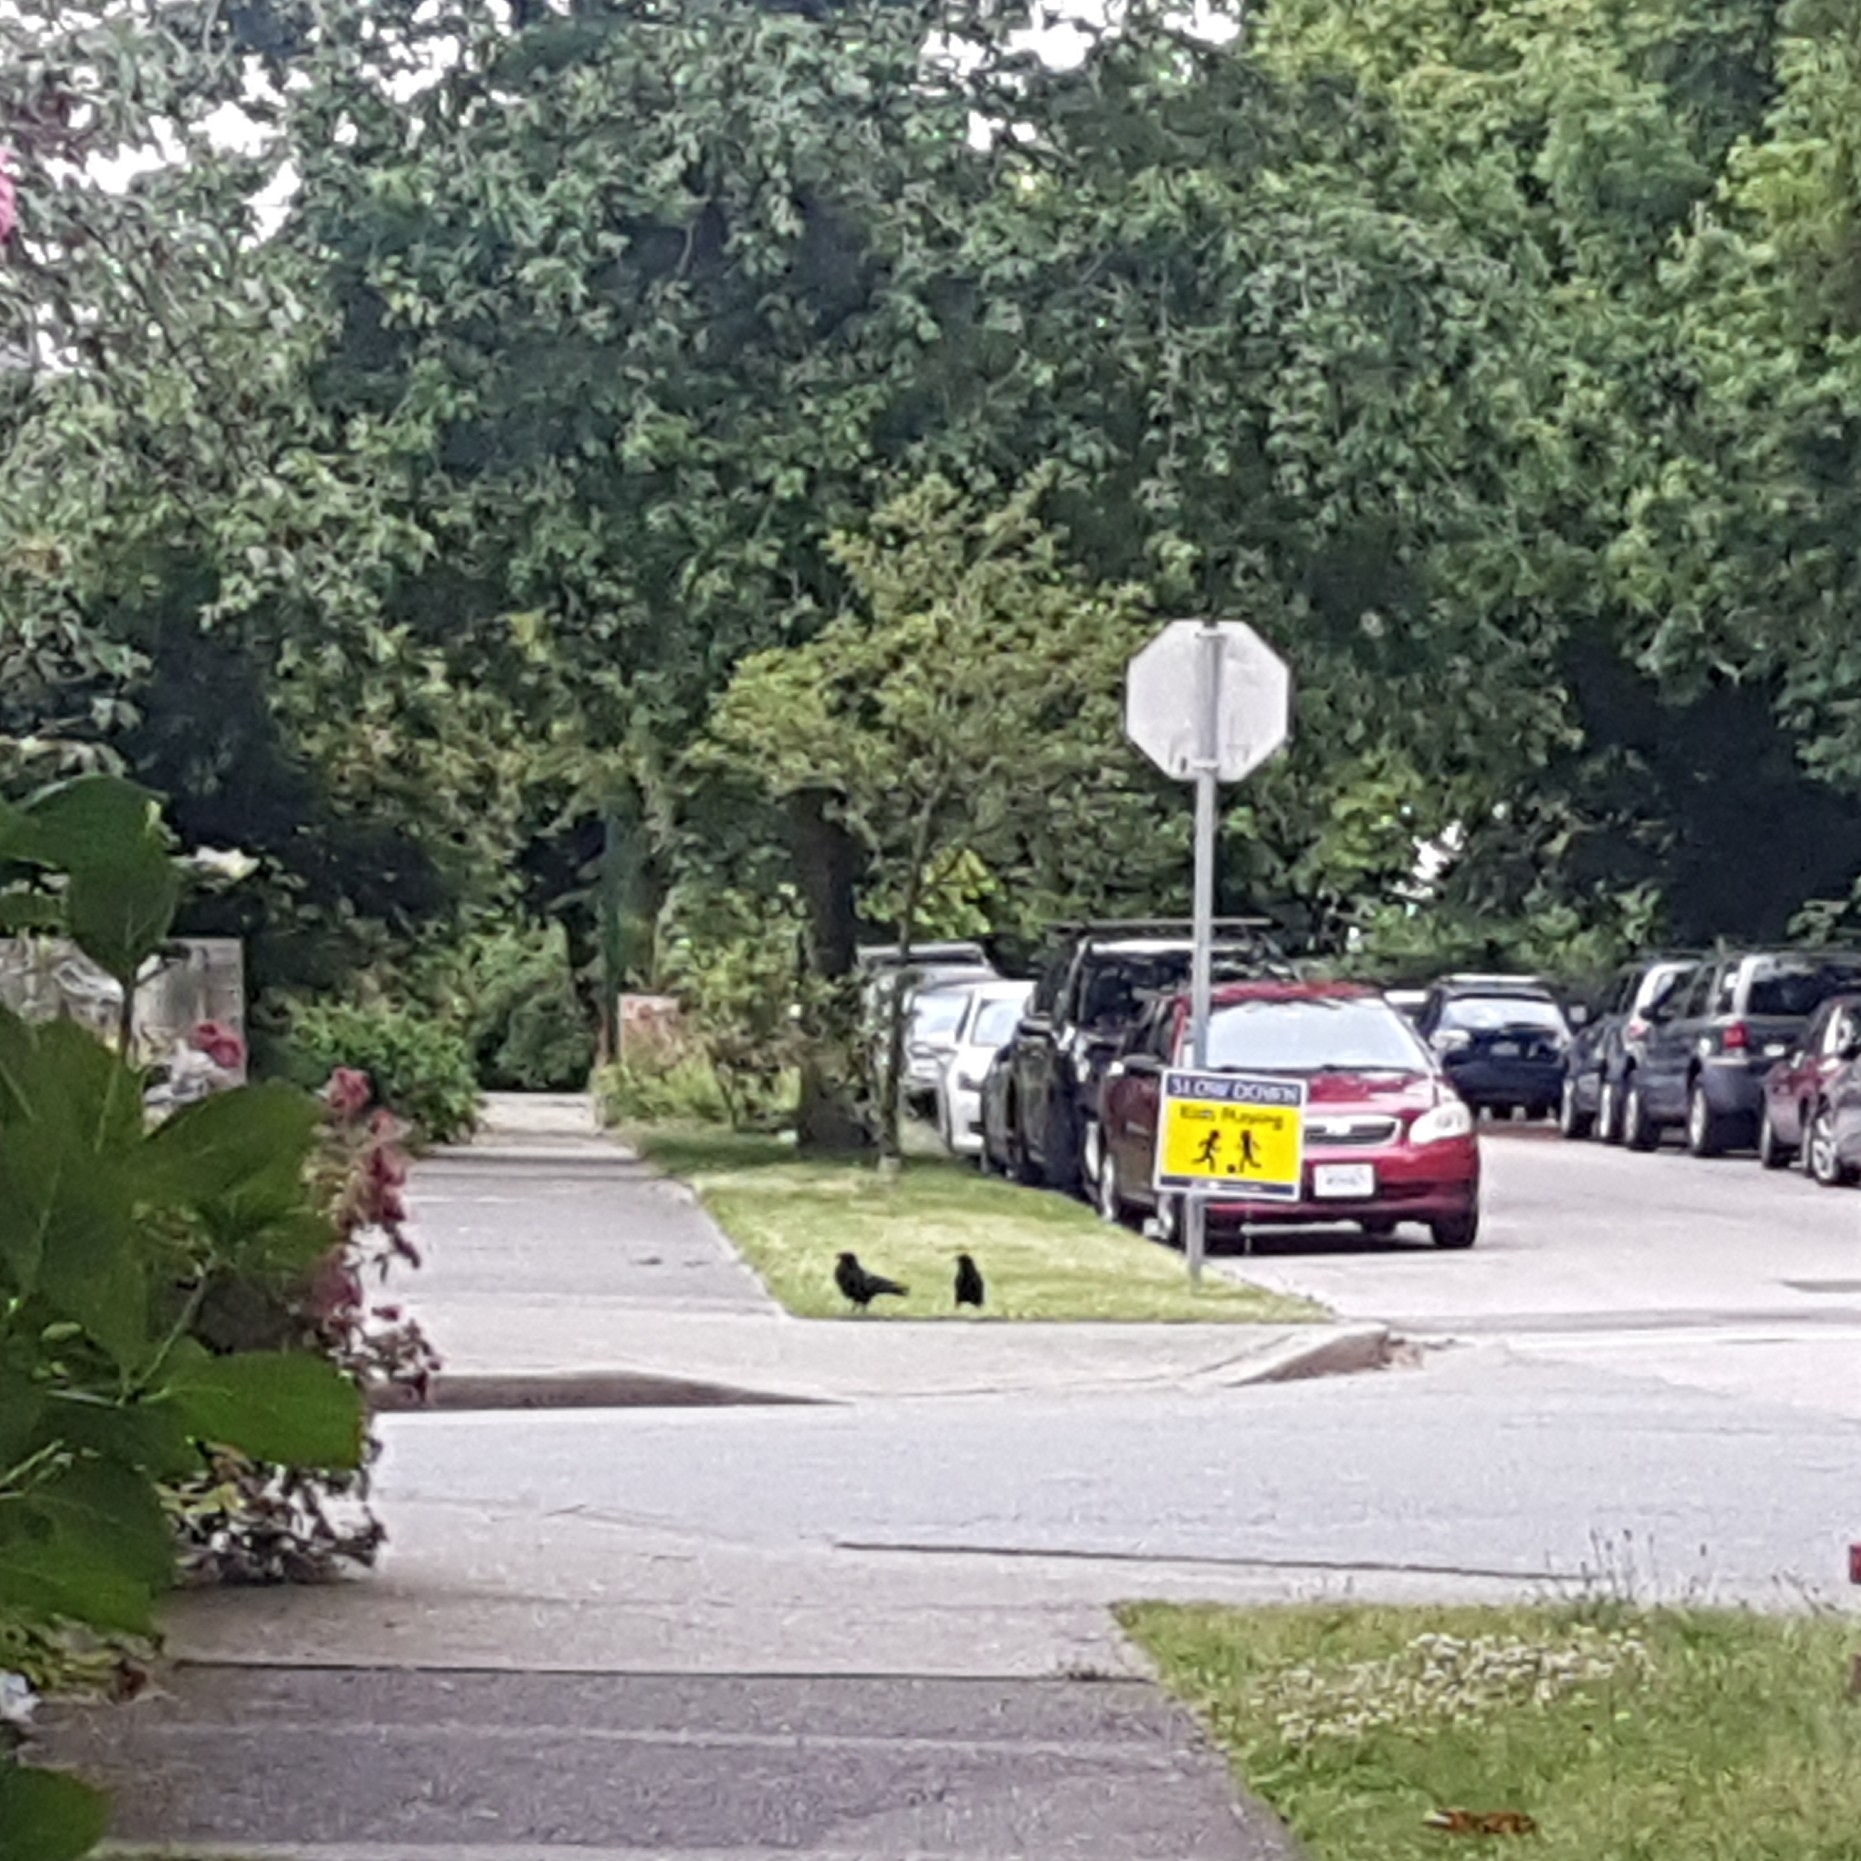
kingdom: Animalia
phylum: Chordata
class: Aves
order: Passeriformes
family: Corvidae
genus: Corvus
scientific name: Corvus brachyrhynchos
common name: American crow
